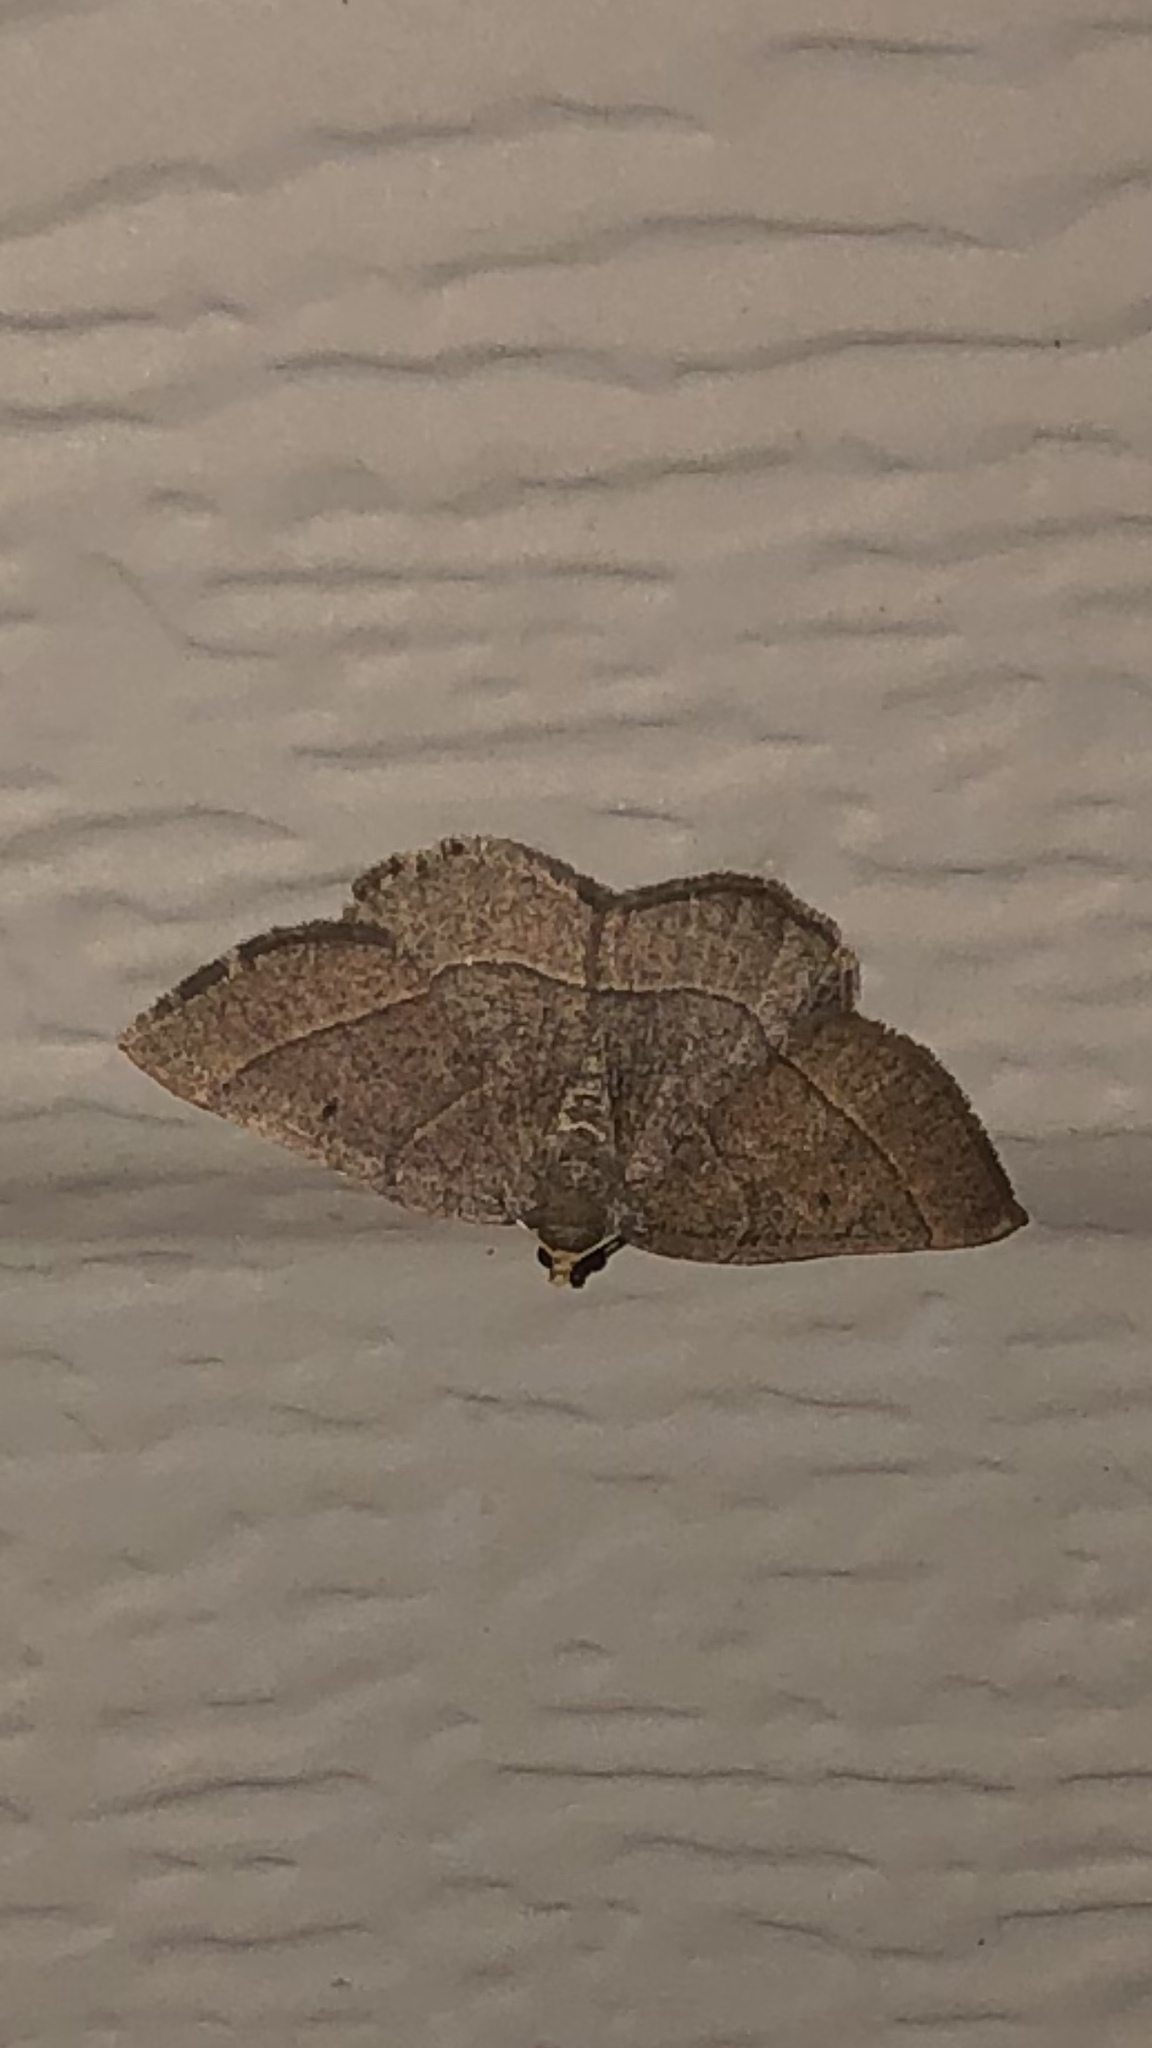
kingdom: Animalia
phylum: Arthropoda
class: Insecta
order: Lepidoptera
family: Geometridae
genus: Episemasia
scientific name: Episemasia cervinaria
